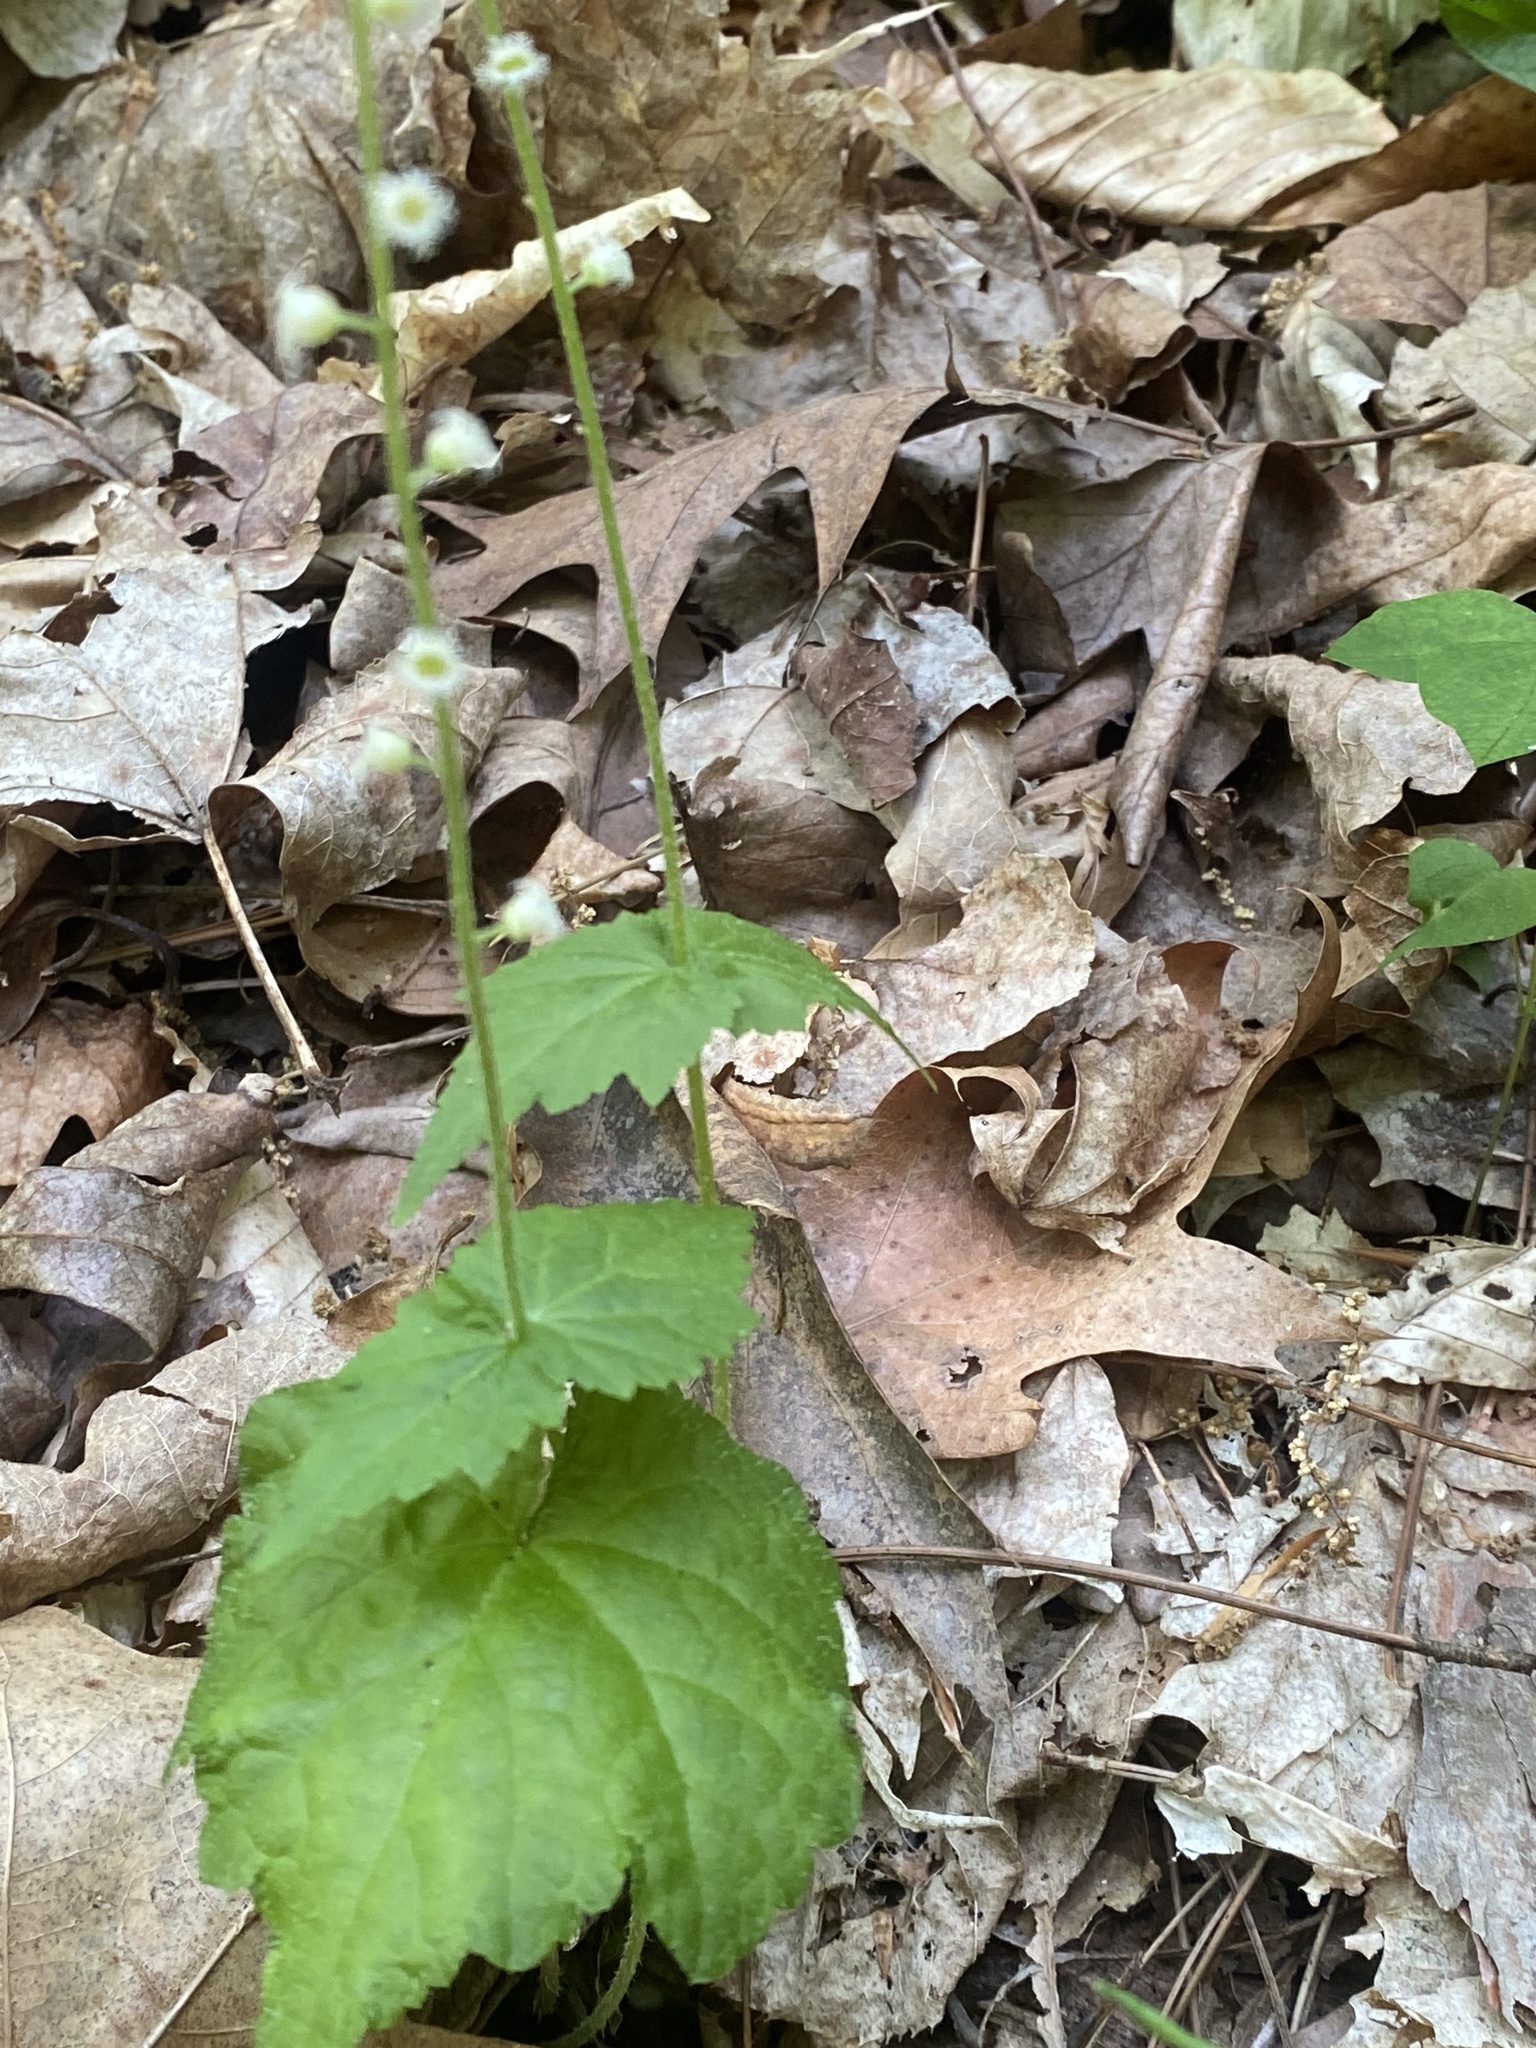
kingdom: Plantae
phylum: Tracheophyta
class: Magnoliopsida
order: Saxifragales
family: Saxifragaceae
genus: Mitella
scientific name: Mitella diphylla
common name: Coolwort
